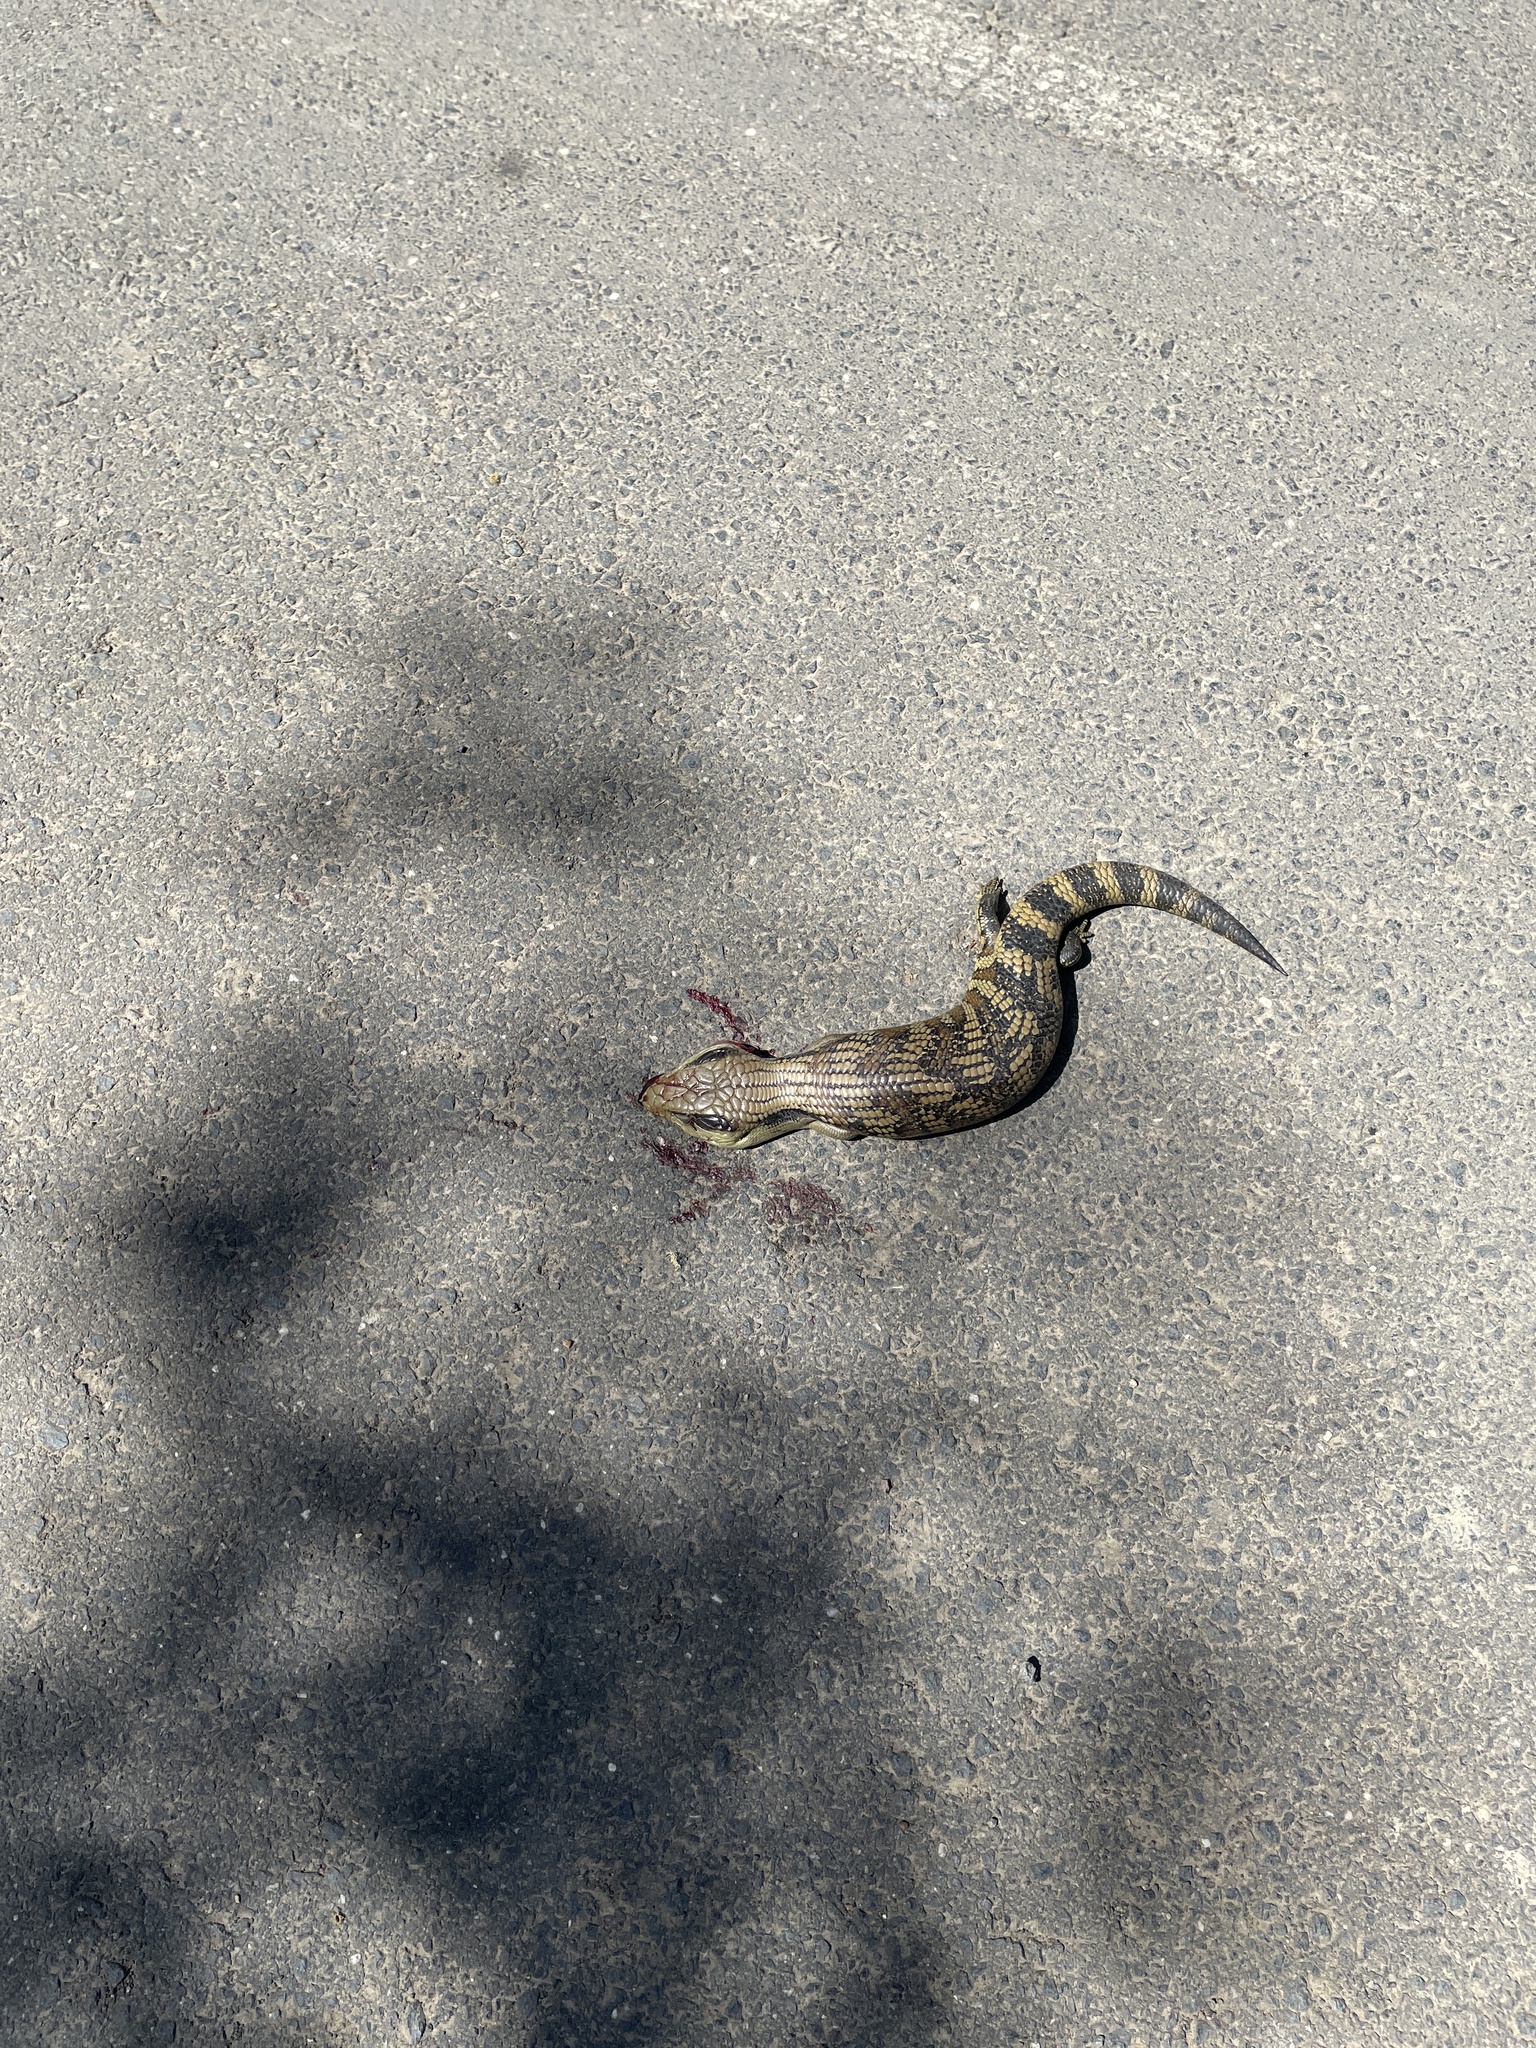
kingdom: Animalia
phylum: Chordata
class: Squamata
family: Scincidae
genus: Tiliqua
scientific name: Tiliqua scincoides
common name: Common bluetongue
